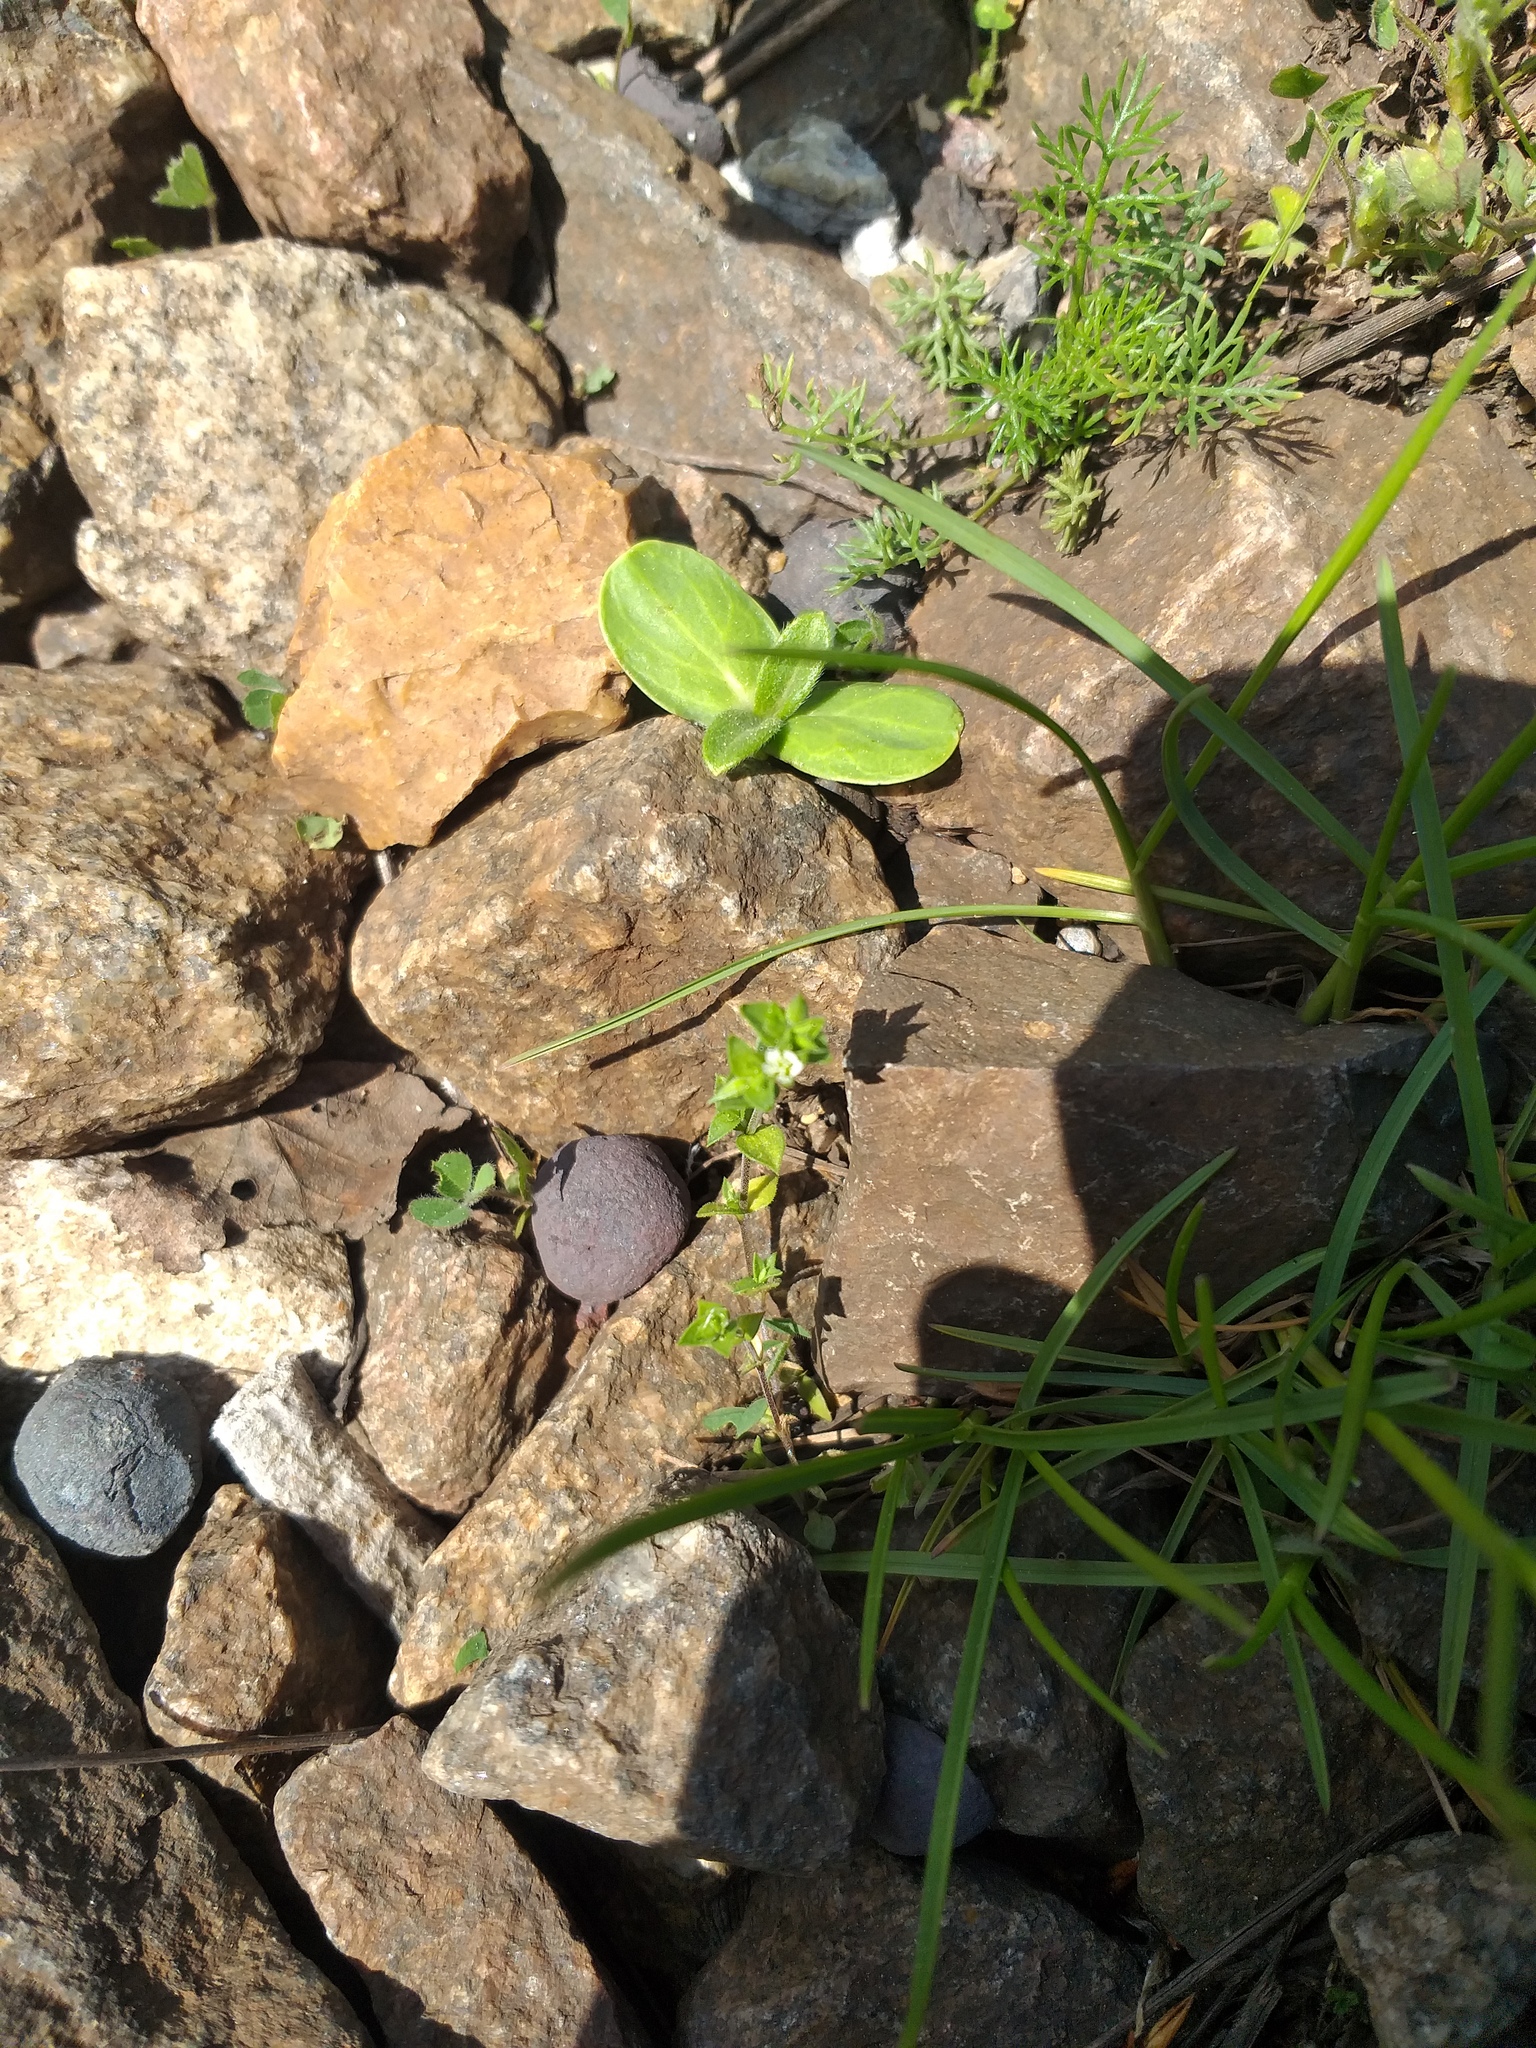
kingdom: Plantae
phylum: Tracheophyta
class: Magnoliopsida
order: Caryophyllales
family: Caryophyllaceae
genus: Arenaria
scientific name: Arenaria serpyllifolia
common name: Thyme-leaved sandwort
